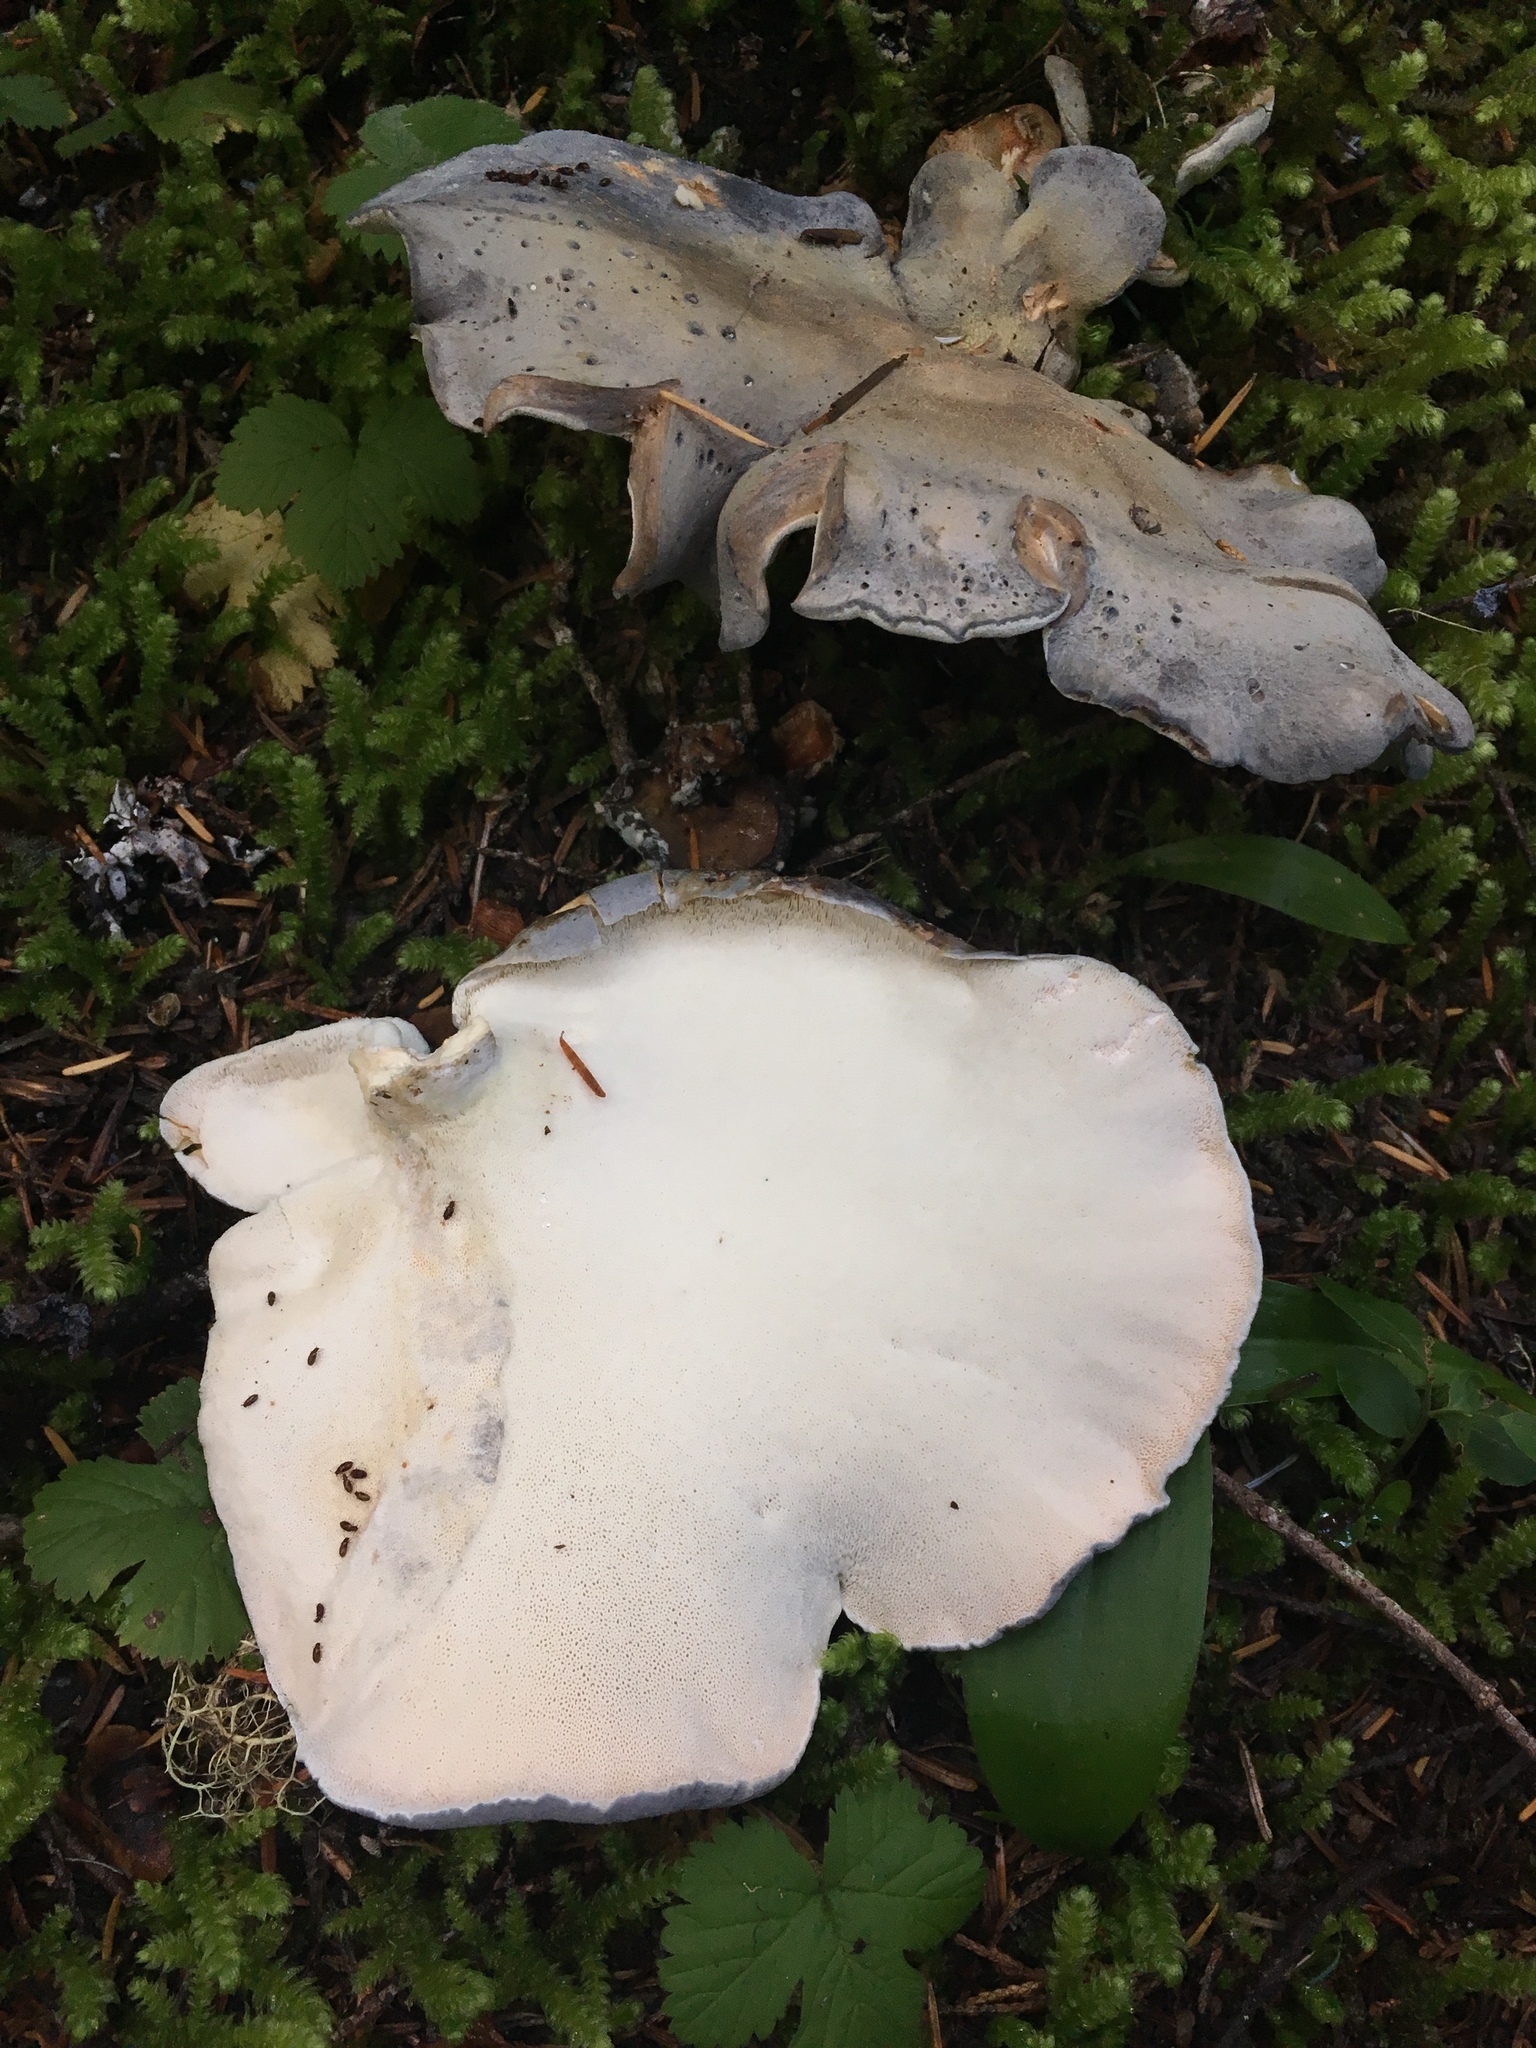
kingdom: Fungi
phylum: Basidiomycota
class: Agaricomycetes
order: Russulales
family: Albatrellaceae
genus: Albatrellopsis
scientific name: Albatrellopsis flettii
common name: Blue polypore
